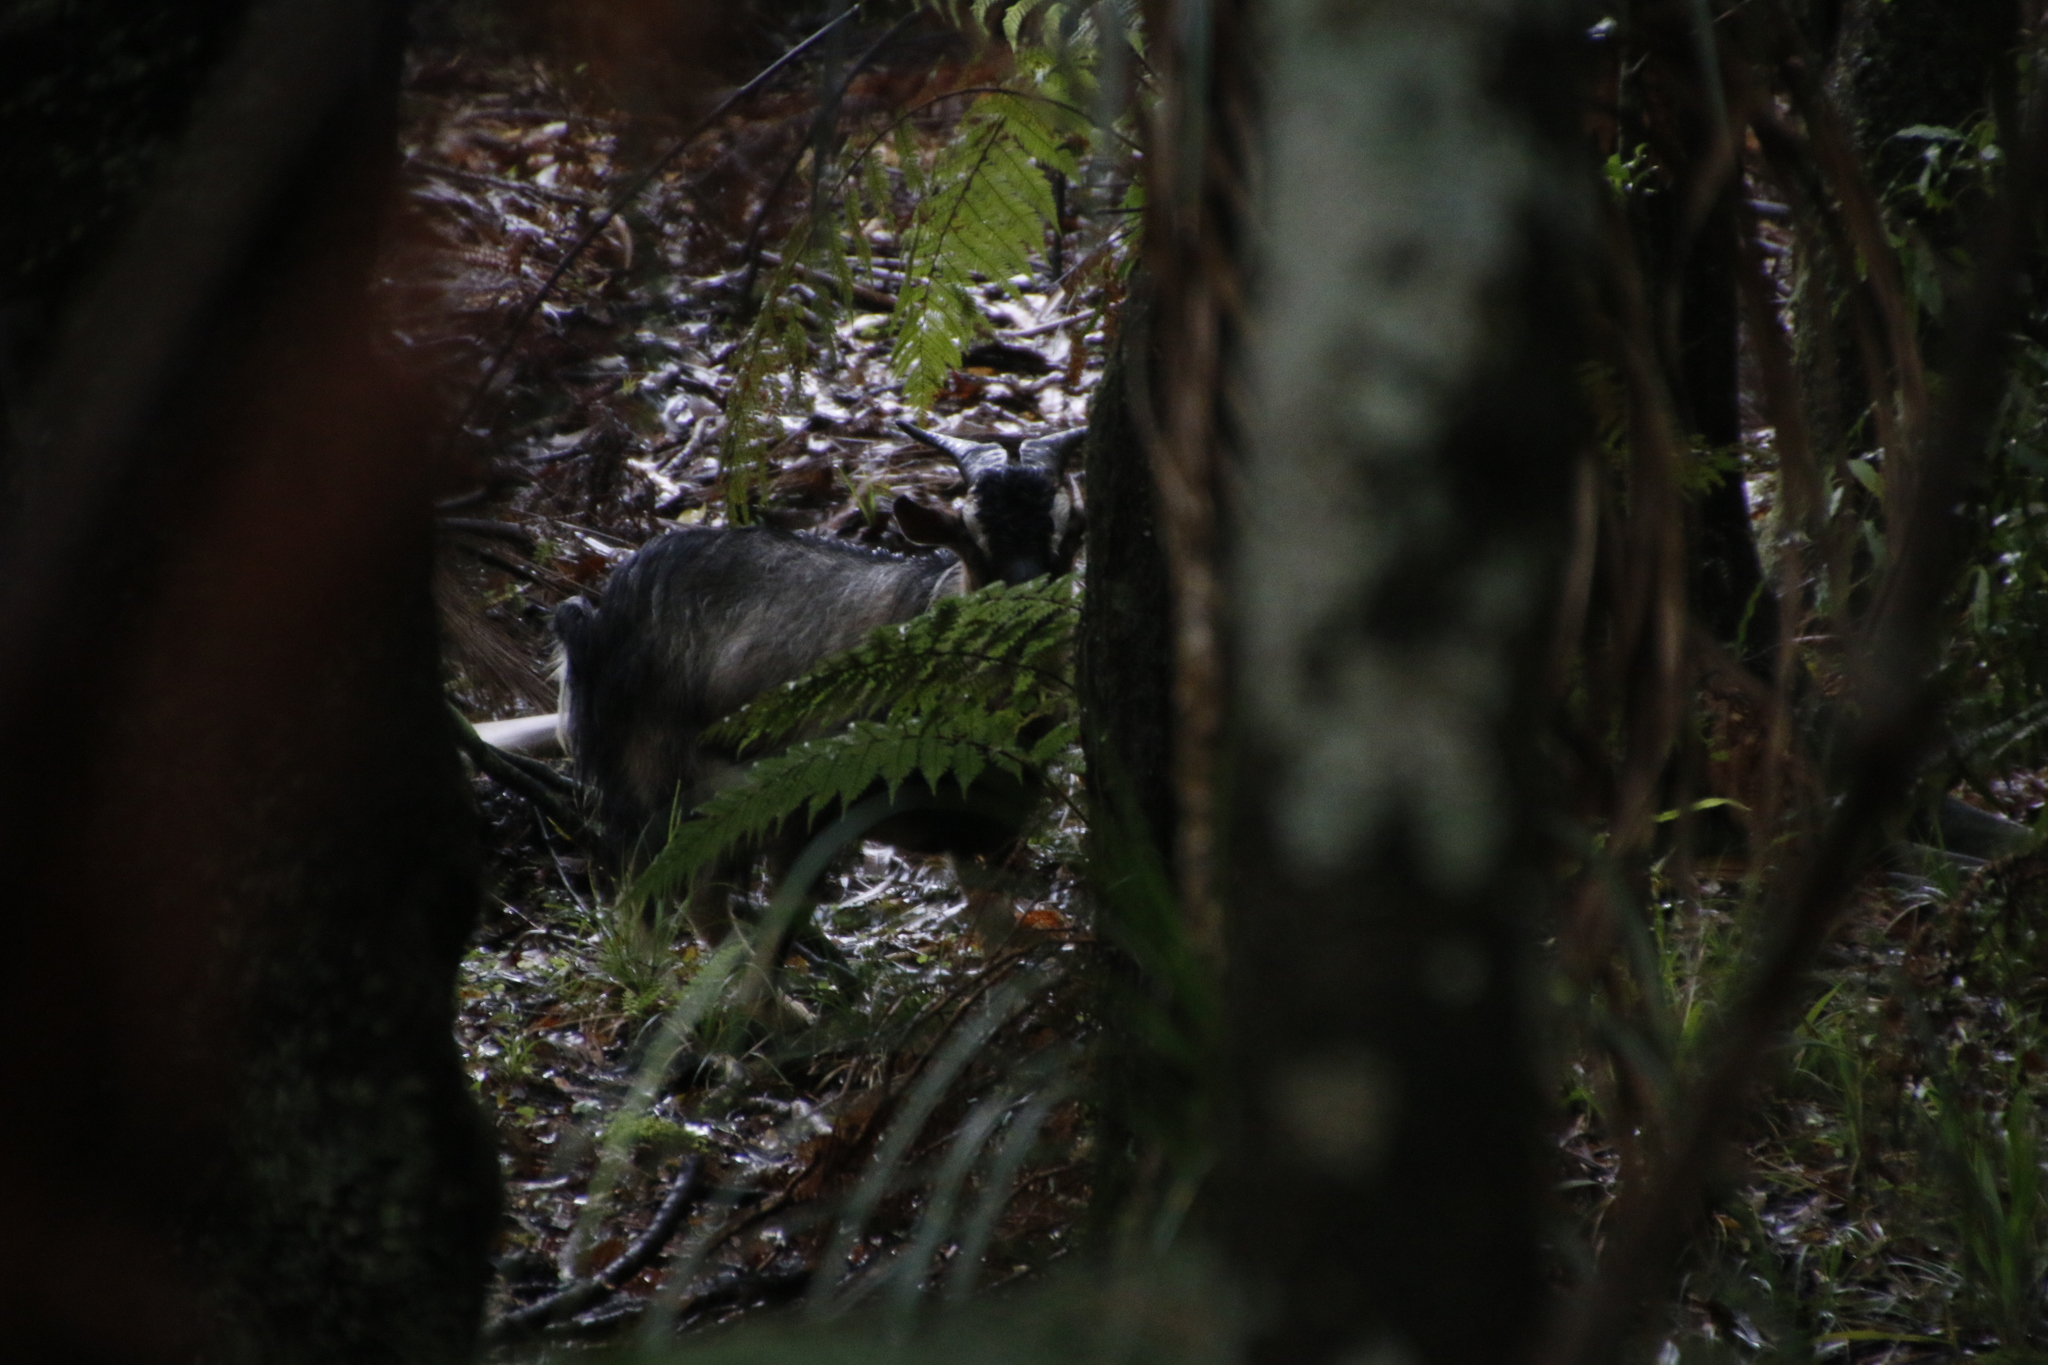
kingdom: Animalia
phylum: Chordata
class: Mammalia
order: Artiodactyla
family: Bovidae
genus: Capra
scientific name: Capra hircus
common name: Domestic goat
